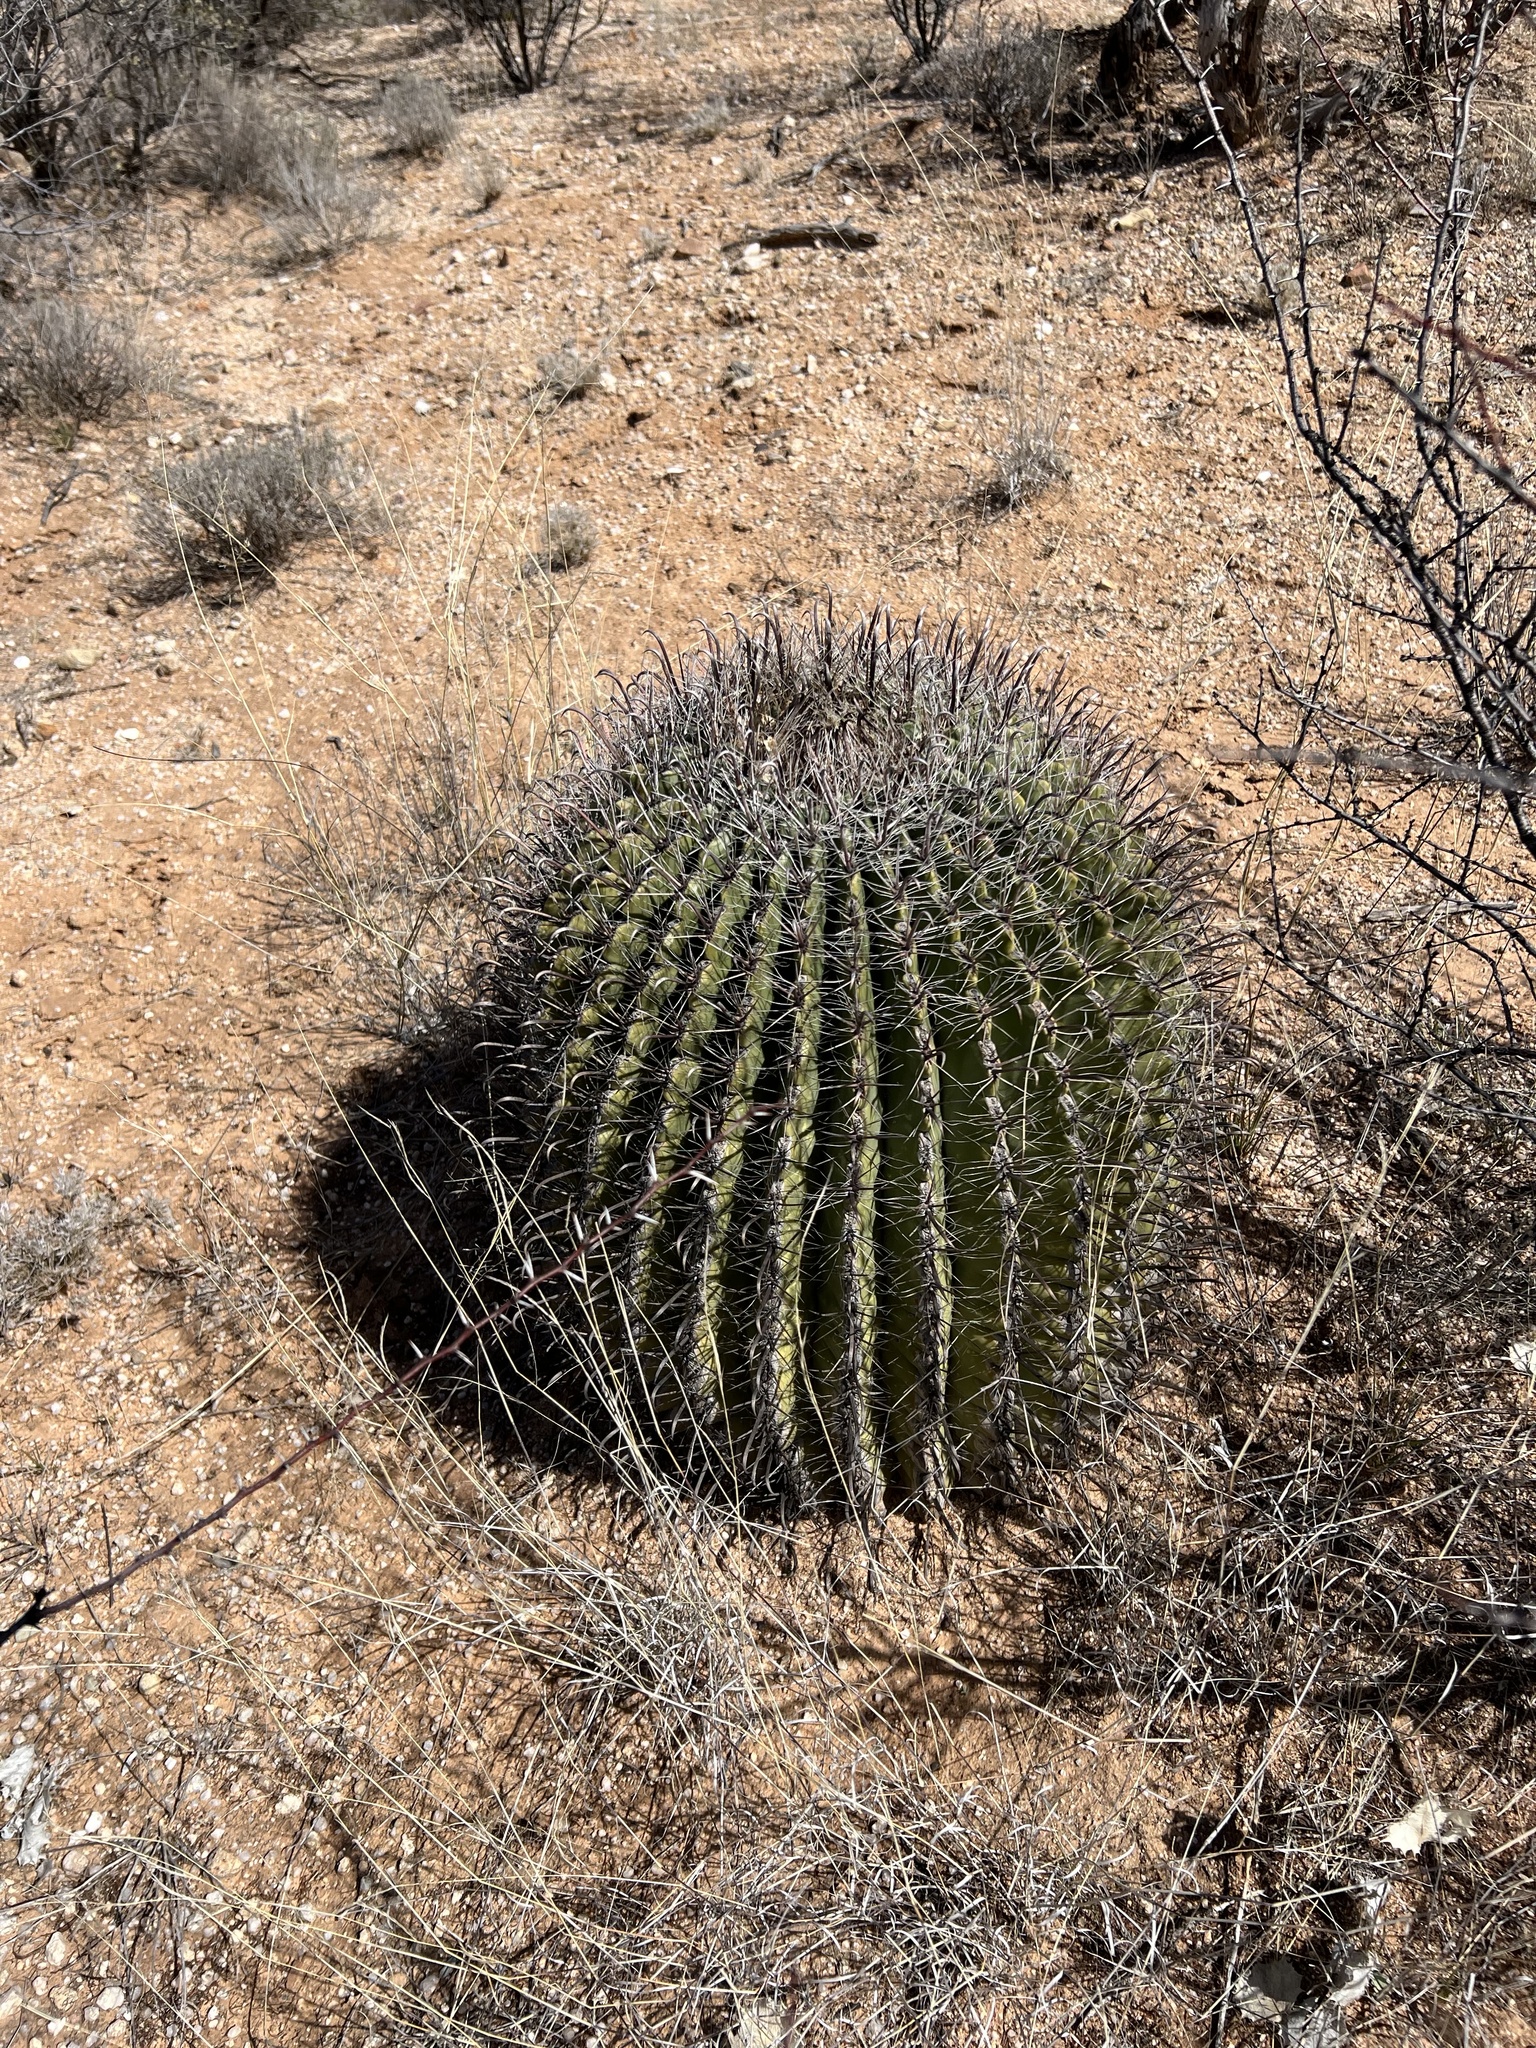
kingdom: Plantae
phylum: Tracheophyta
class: Magnoliopsida
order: Caryophyllales
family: Cactaceae
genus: Ferocactus
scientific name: Ferocactus wislizeni
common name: Candy barrel cactus
